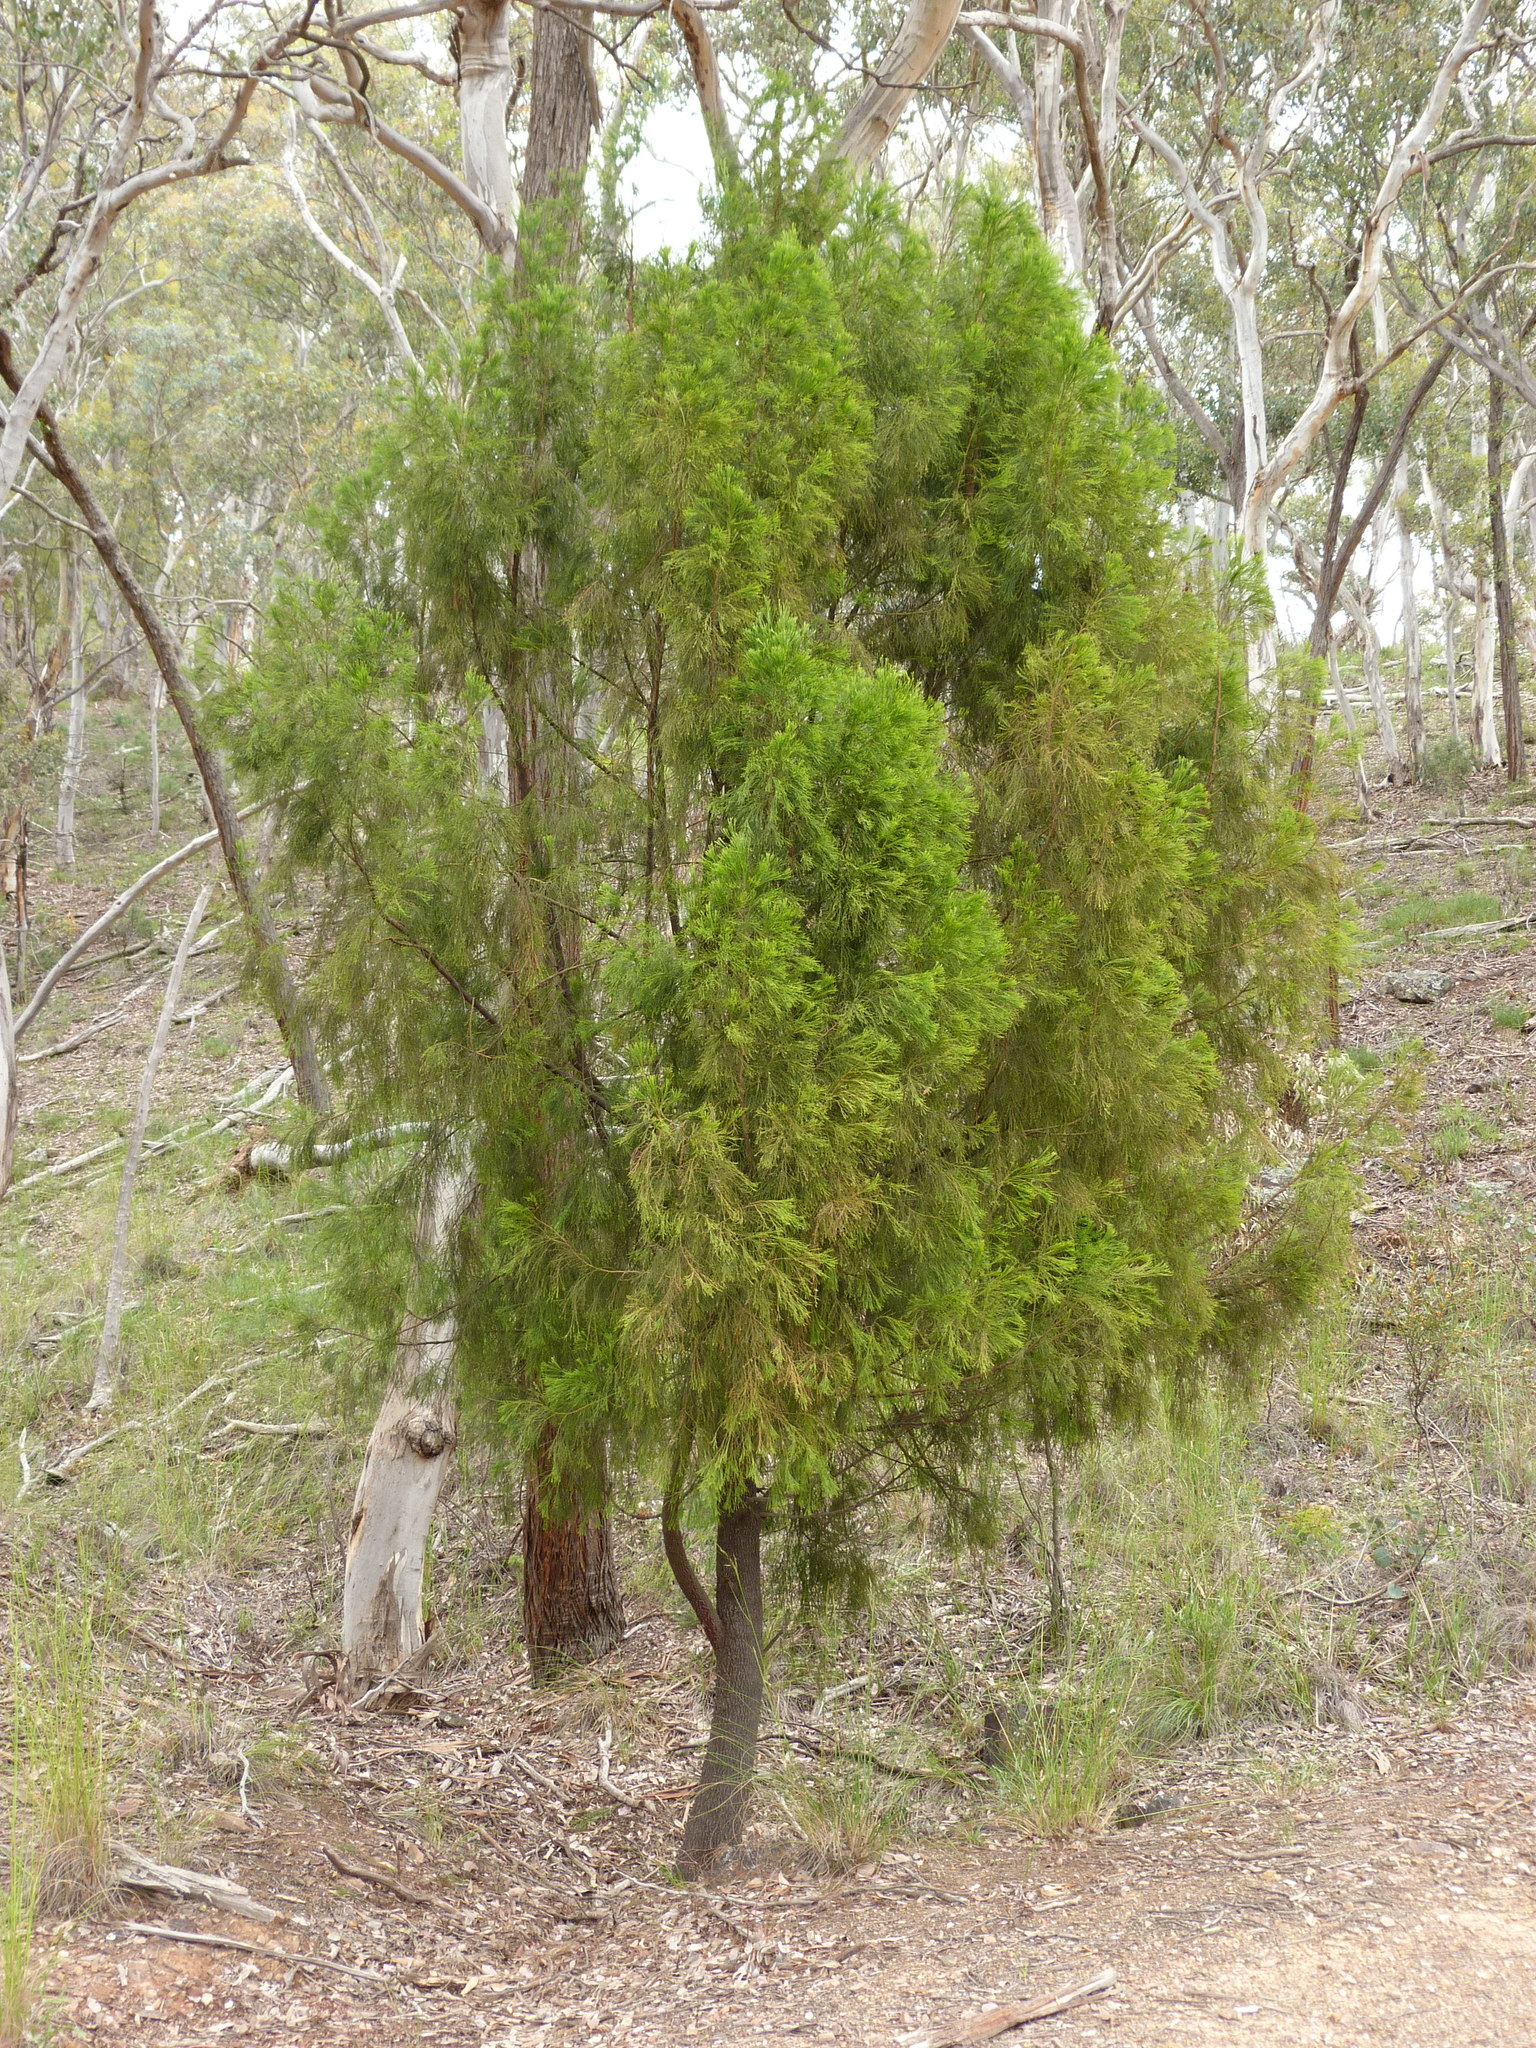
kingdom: Plantae
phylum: Tracheophyta
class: Magnoliopsida
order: Santalales
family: Santalaceae
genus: Exocarpos
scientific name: Exocarpos cupressiformis
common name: Cherry ballart
